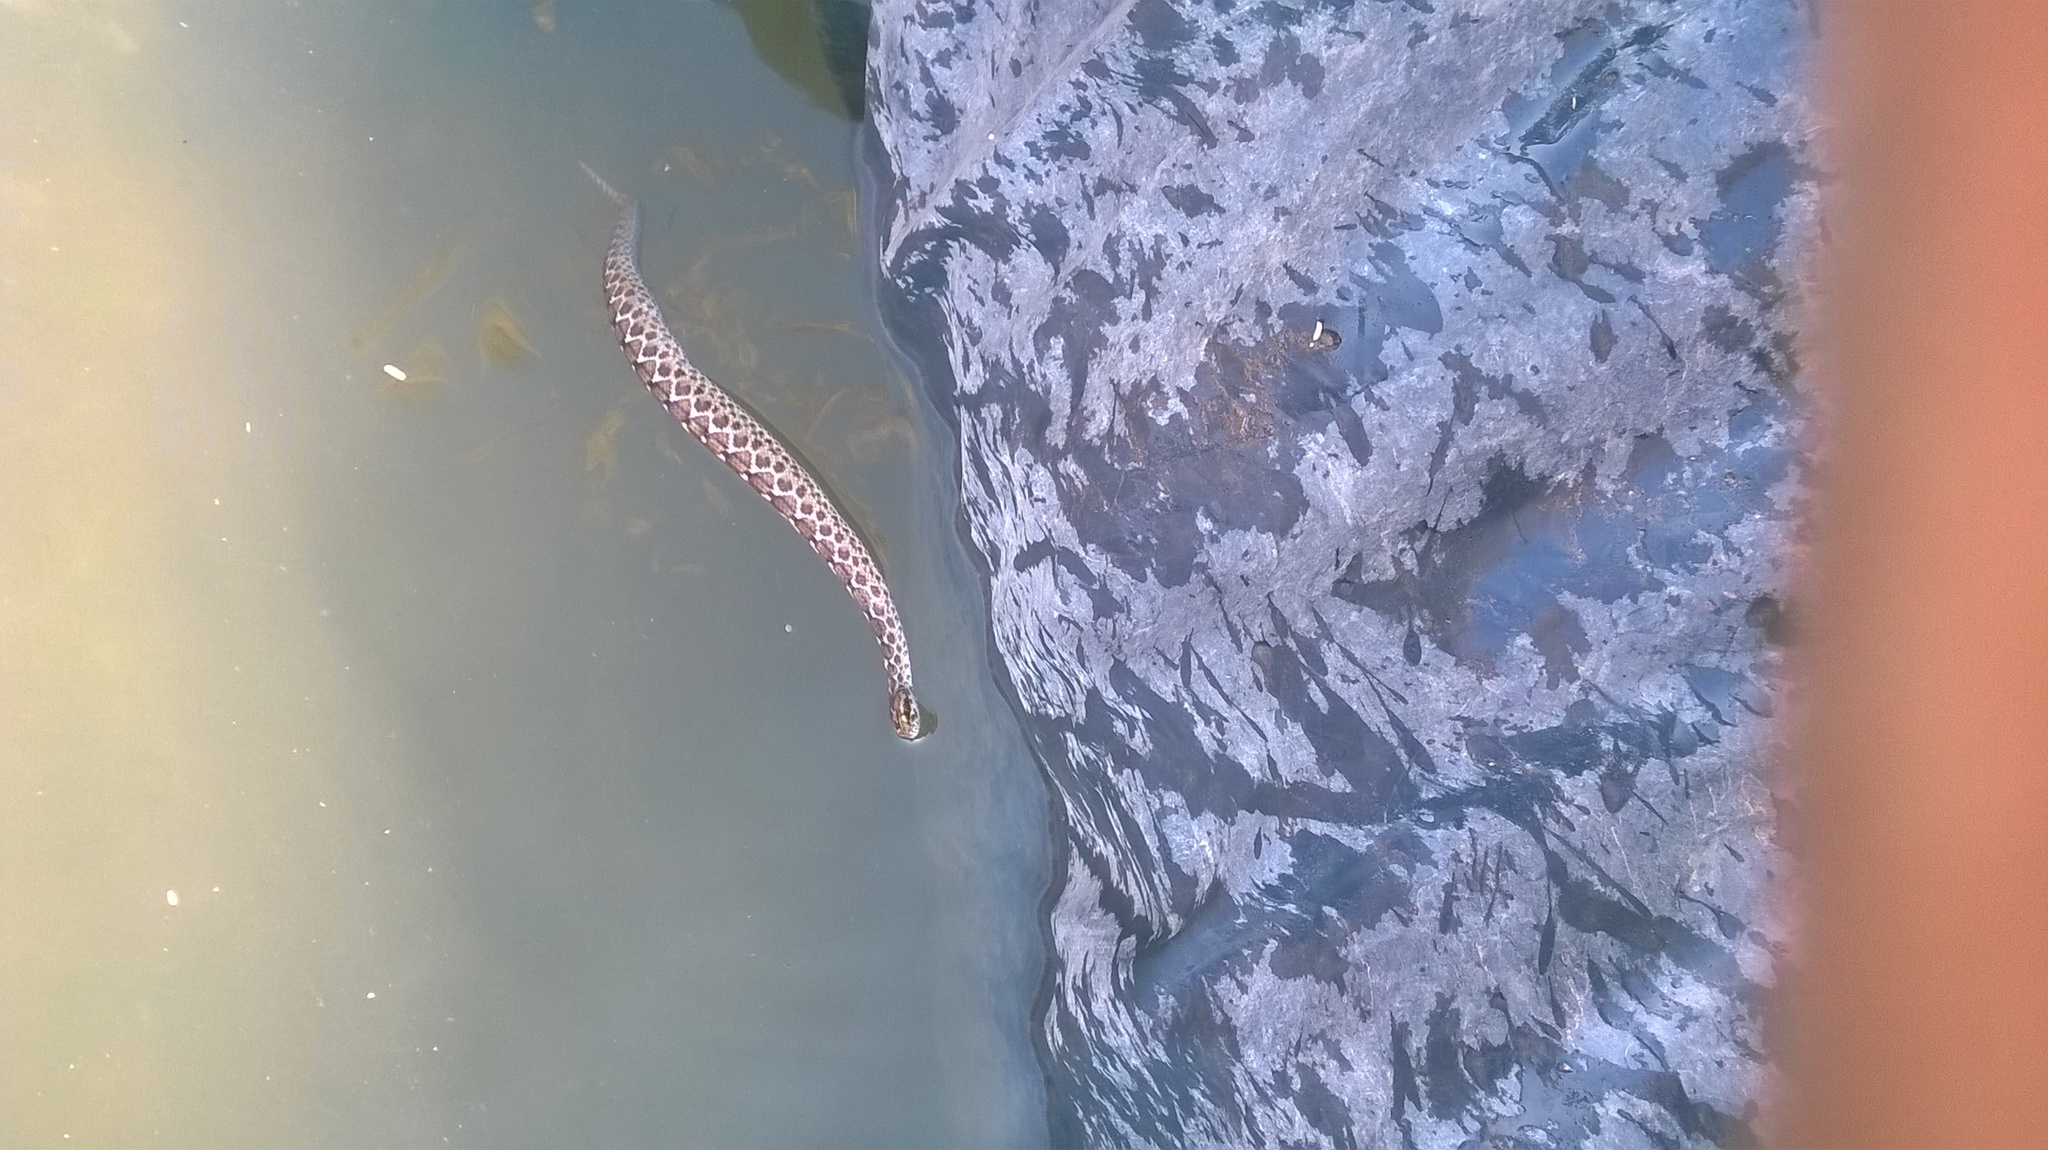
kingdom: Animalia
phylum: Chordata
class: Squamata
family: Viperidae
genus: Echis
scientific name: Echis carinatus
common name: Saw-scaled viper
